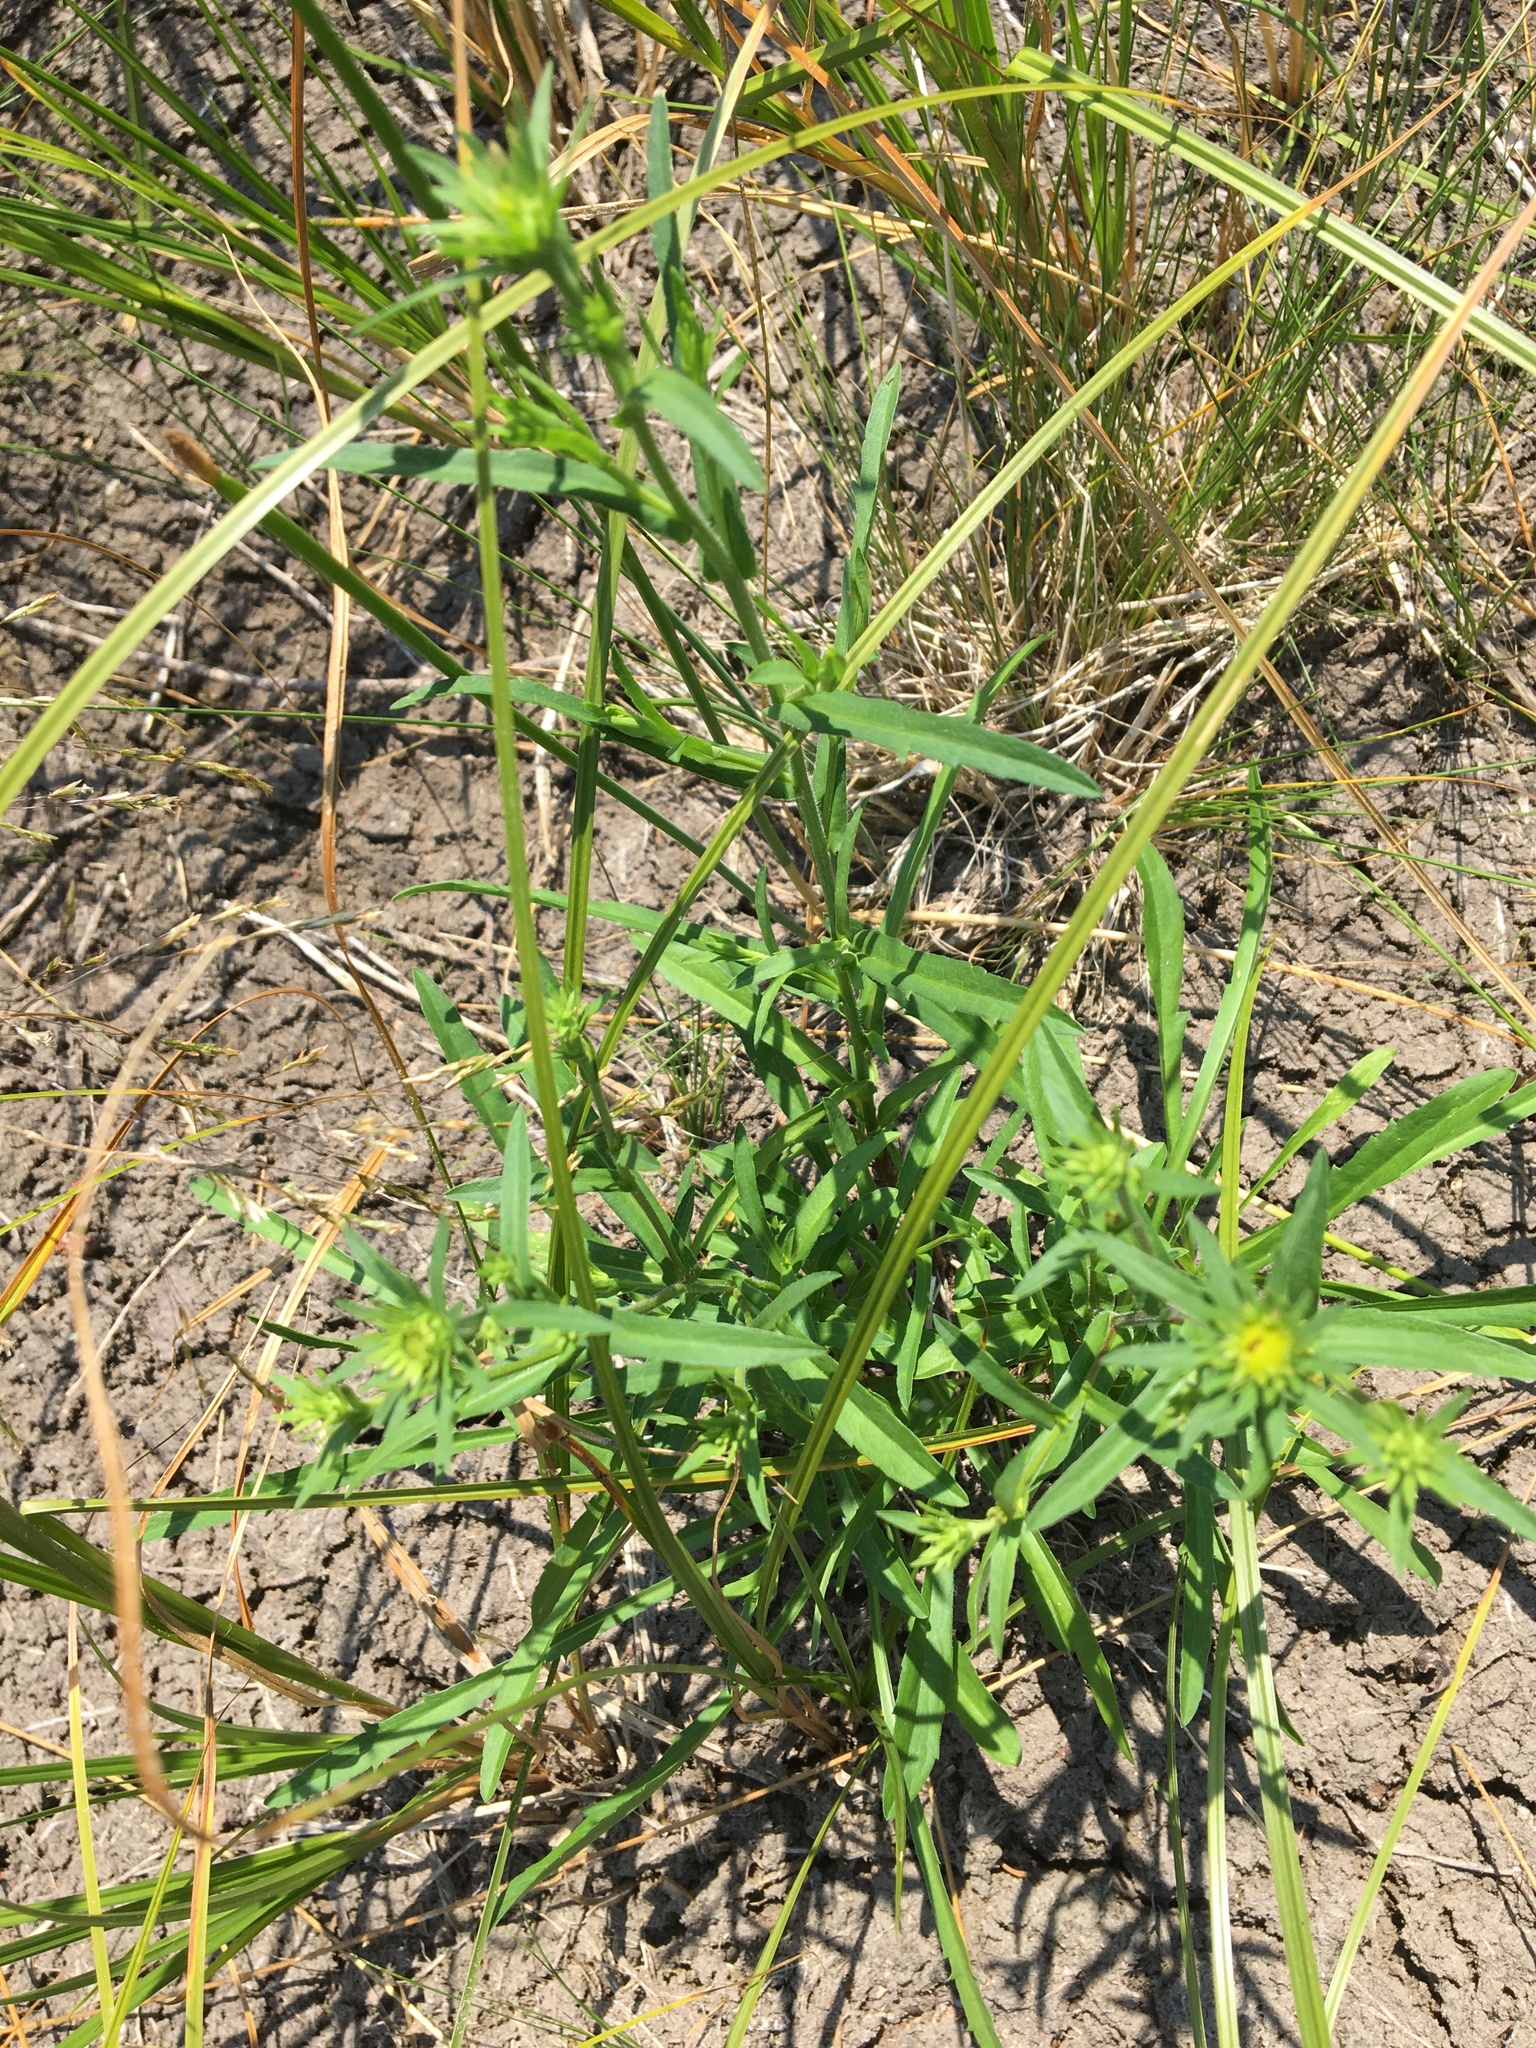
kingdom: Plantae
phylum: Tracheophyta
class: Magnoliopsida
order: Asterales
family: Asteraceae
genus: Bidens
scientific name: Bidens cernua
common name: Nodding bur-marigold
